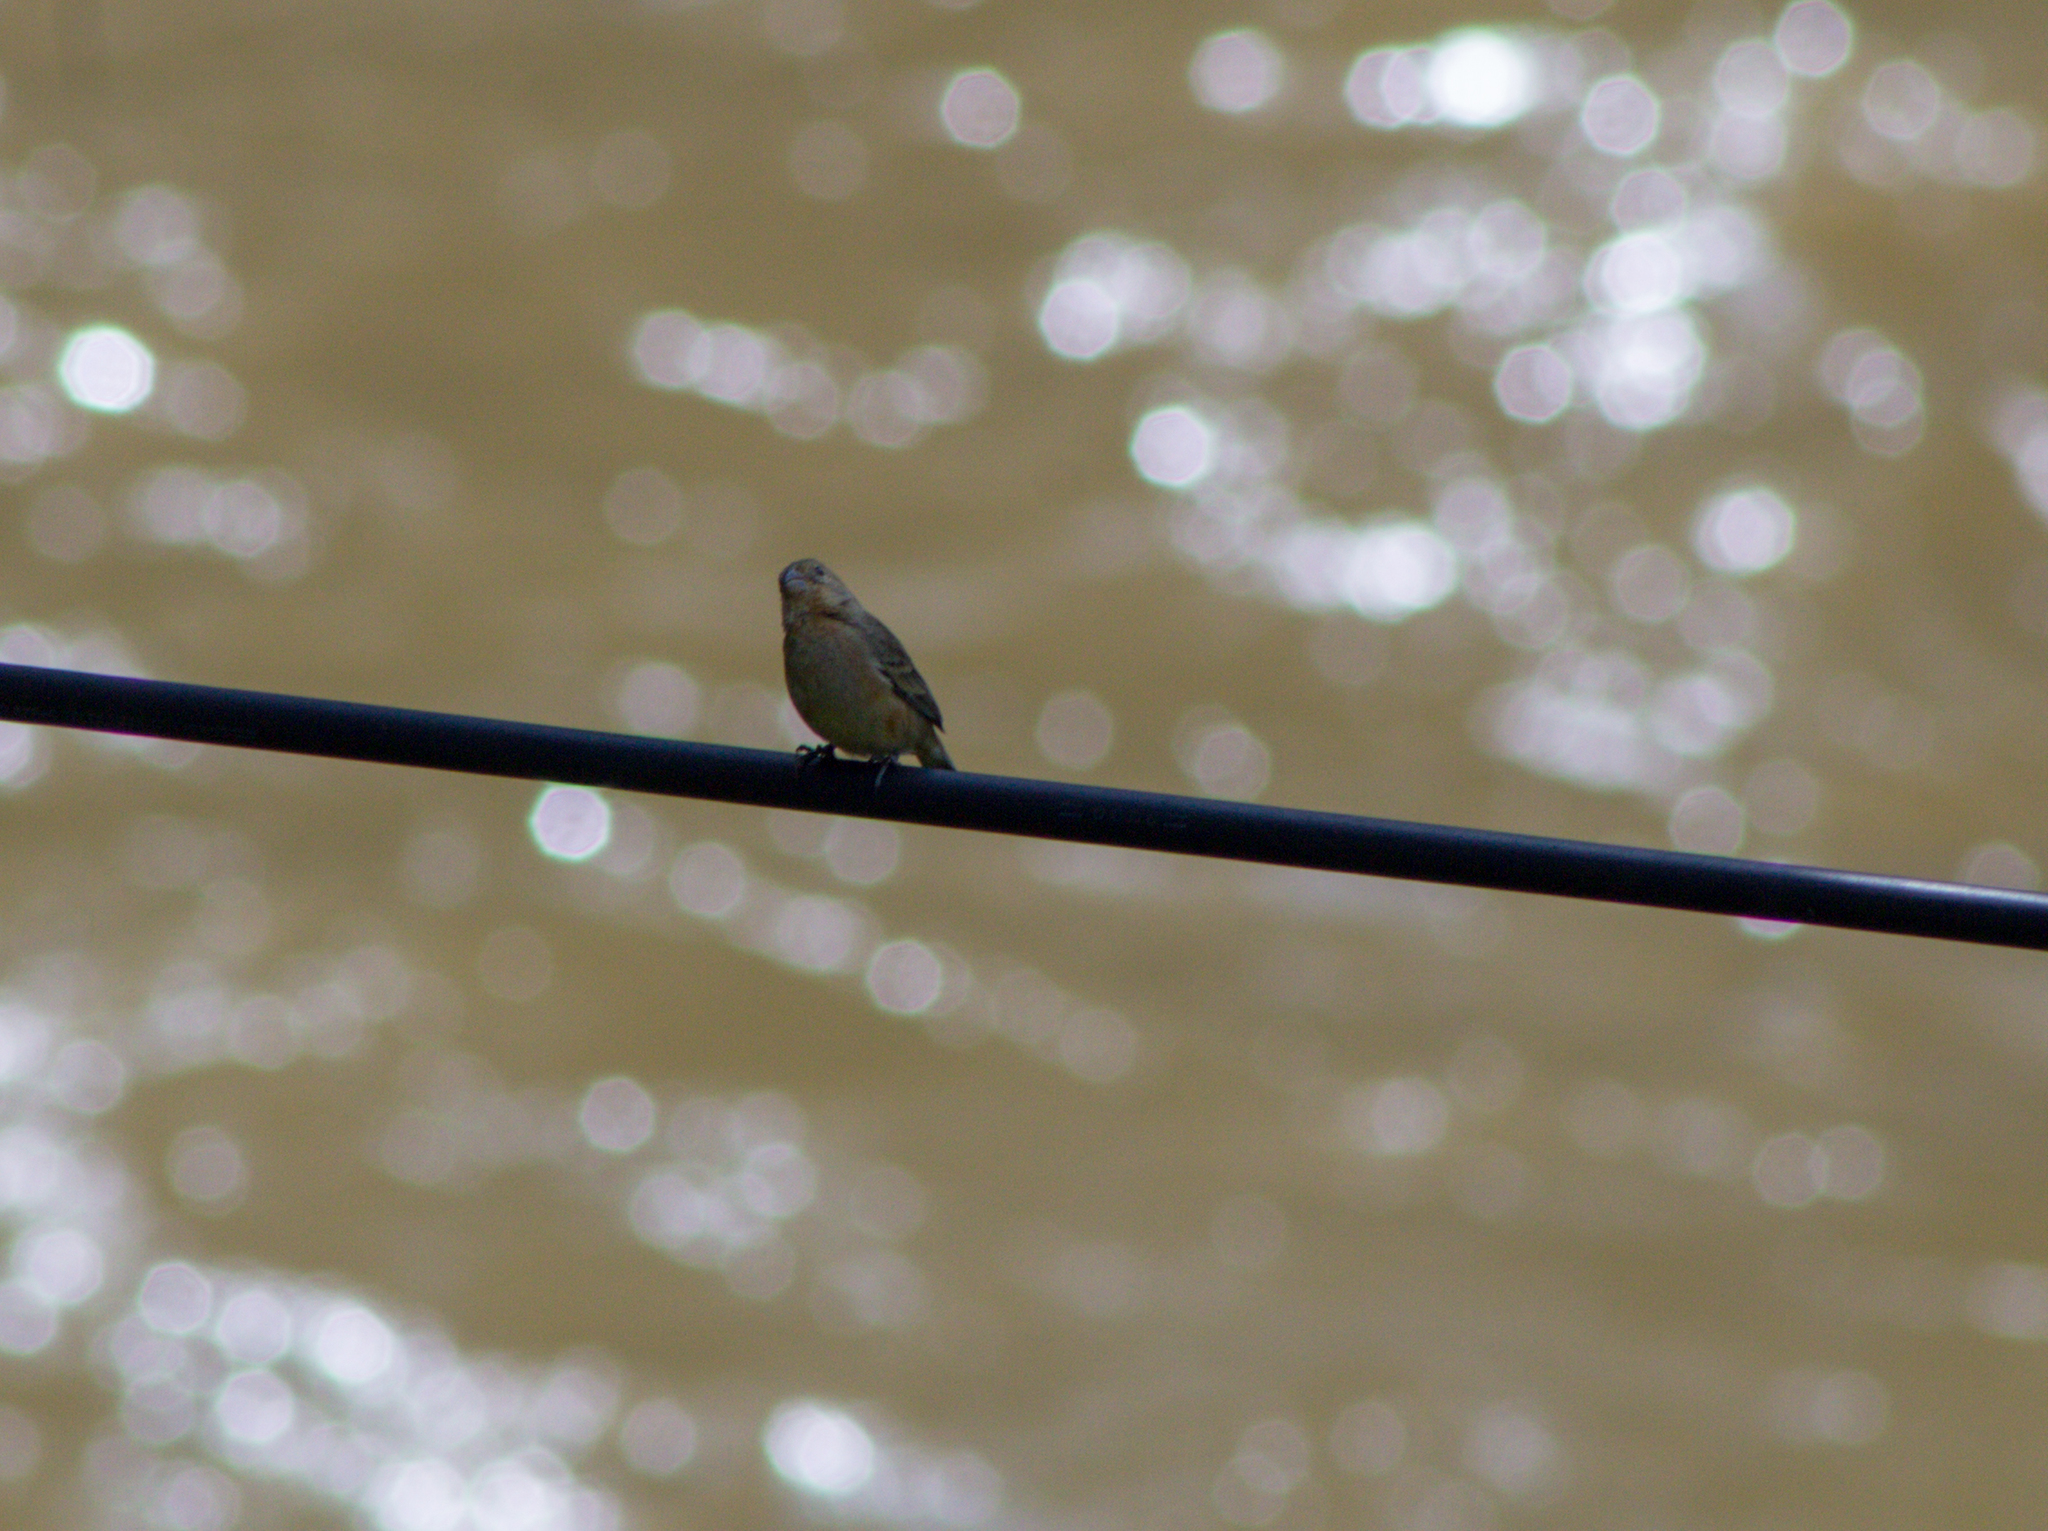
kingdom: Animalia
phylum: Chordata
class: Aves
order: Passeriformes
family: Thraupidae
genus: Sporophila
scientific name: Sporophila minuta
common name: Ruddy-breasted seedeater
